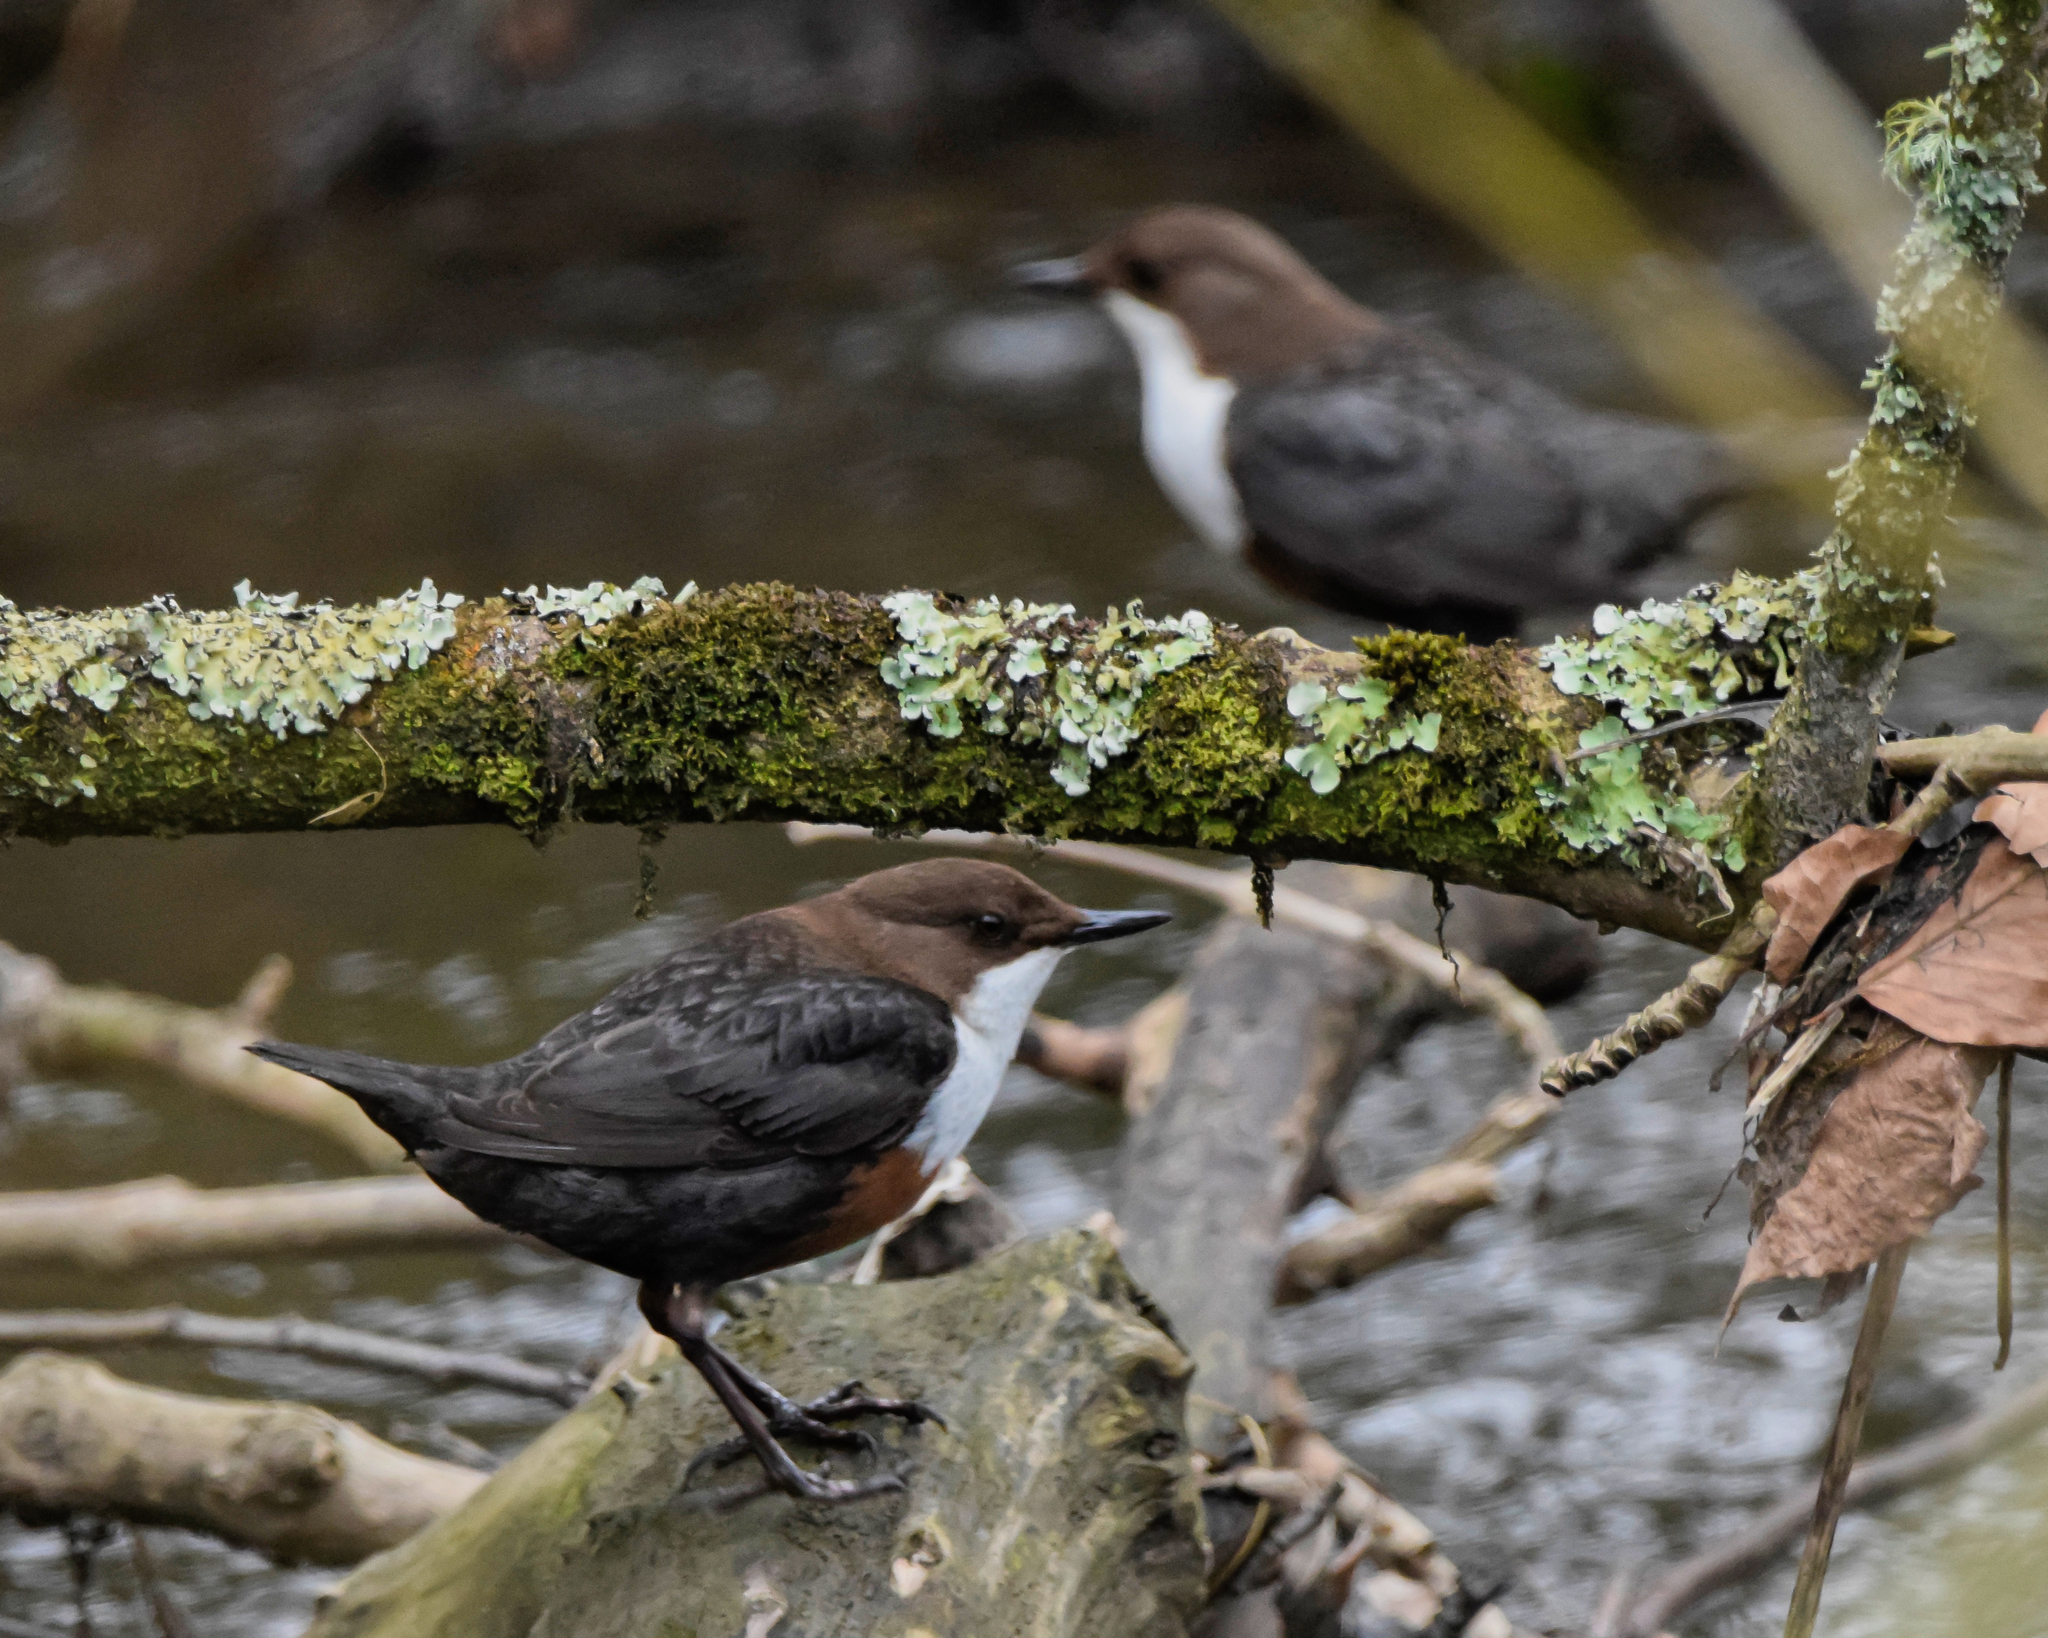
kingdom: Animalia
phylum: Chordata
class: Aves
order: Passeriformes
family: Cinclidae
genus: Cinclus
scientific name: Cinclus cinclus
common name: White-throated dipper
